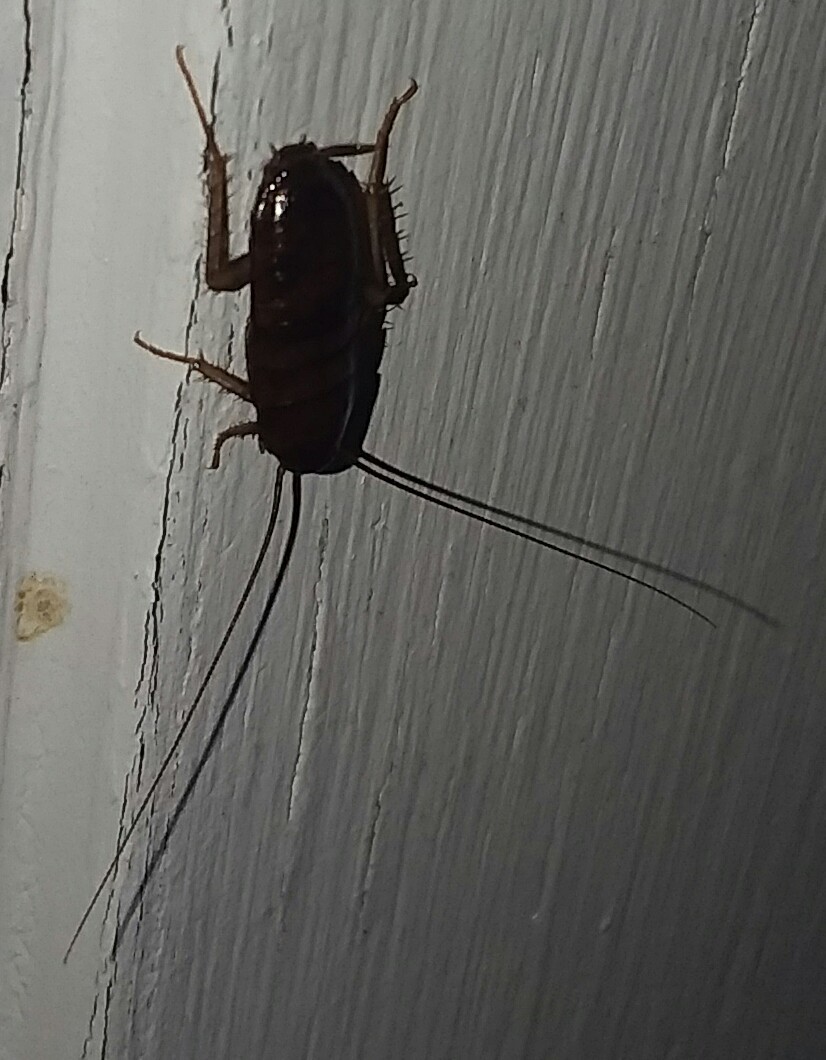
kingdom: Animalia
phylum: Arthropoda
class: Insecta
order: Blattodea
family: Blattidae
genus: Blatta
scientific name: Blatta orientalis
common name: Oriental cockroach
